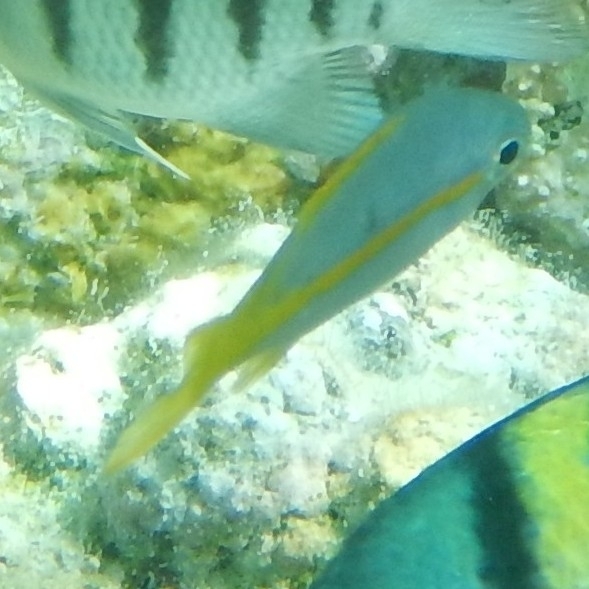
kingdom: Animalia
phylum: Chordata
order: Perciformes
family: Lutjanidae
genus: Ocyurus
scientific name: Ocyurus chrysurus
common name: Yellowtail snapper
